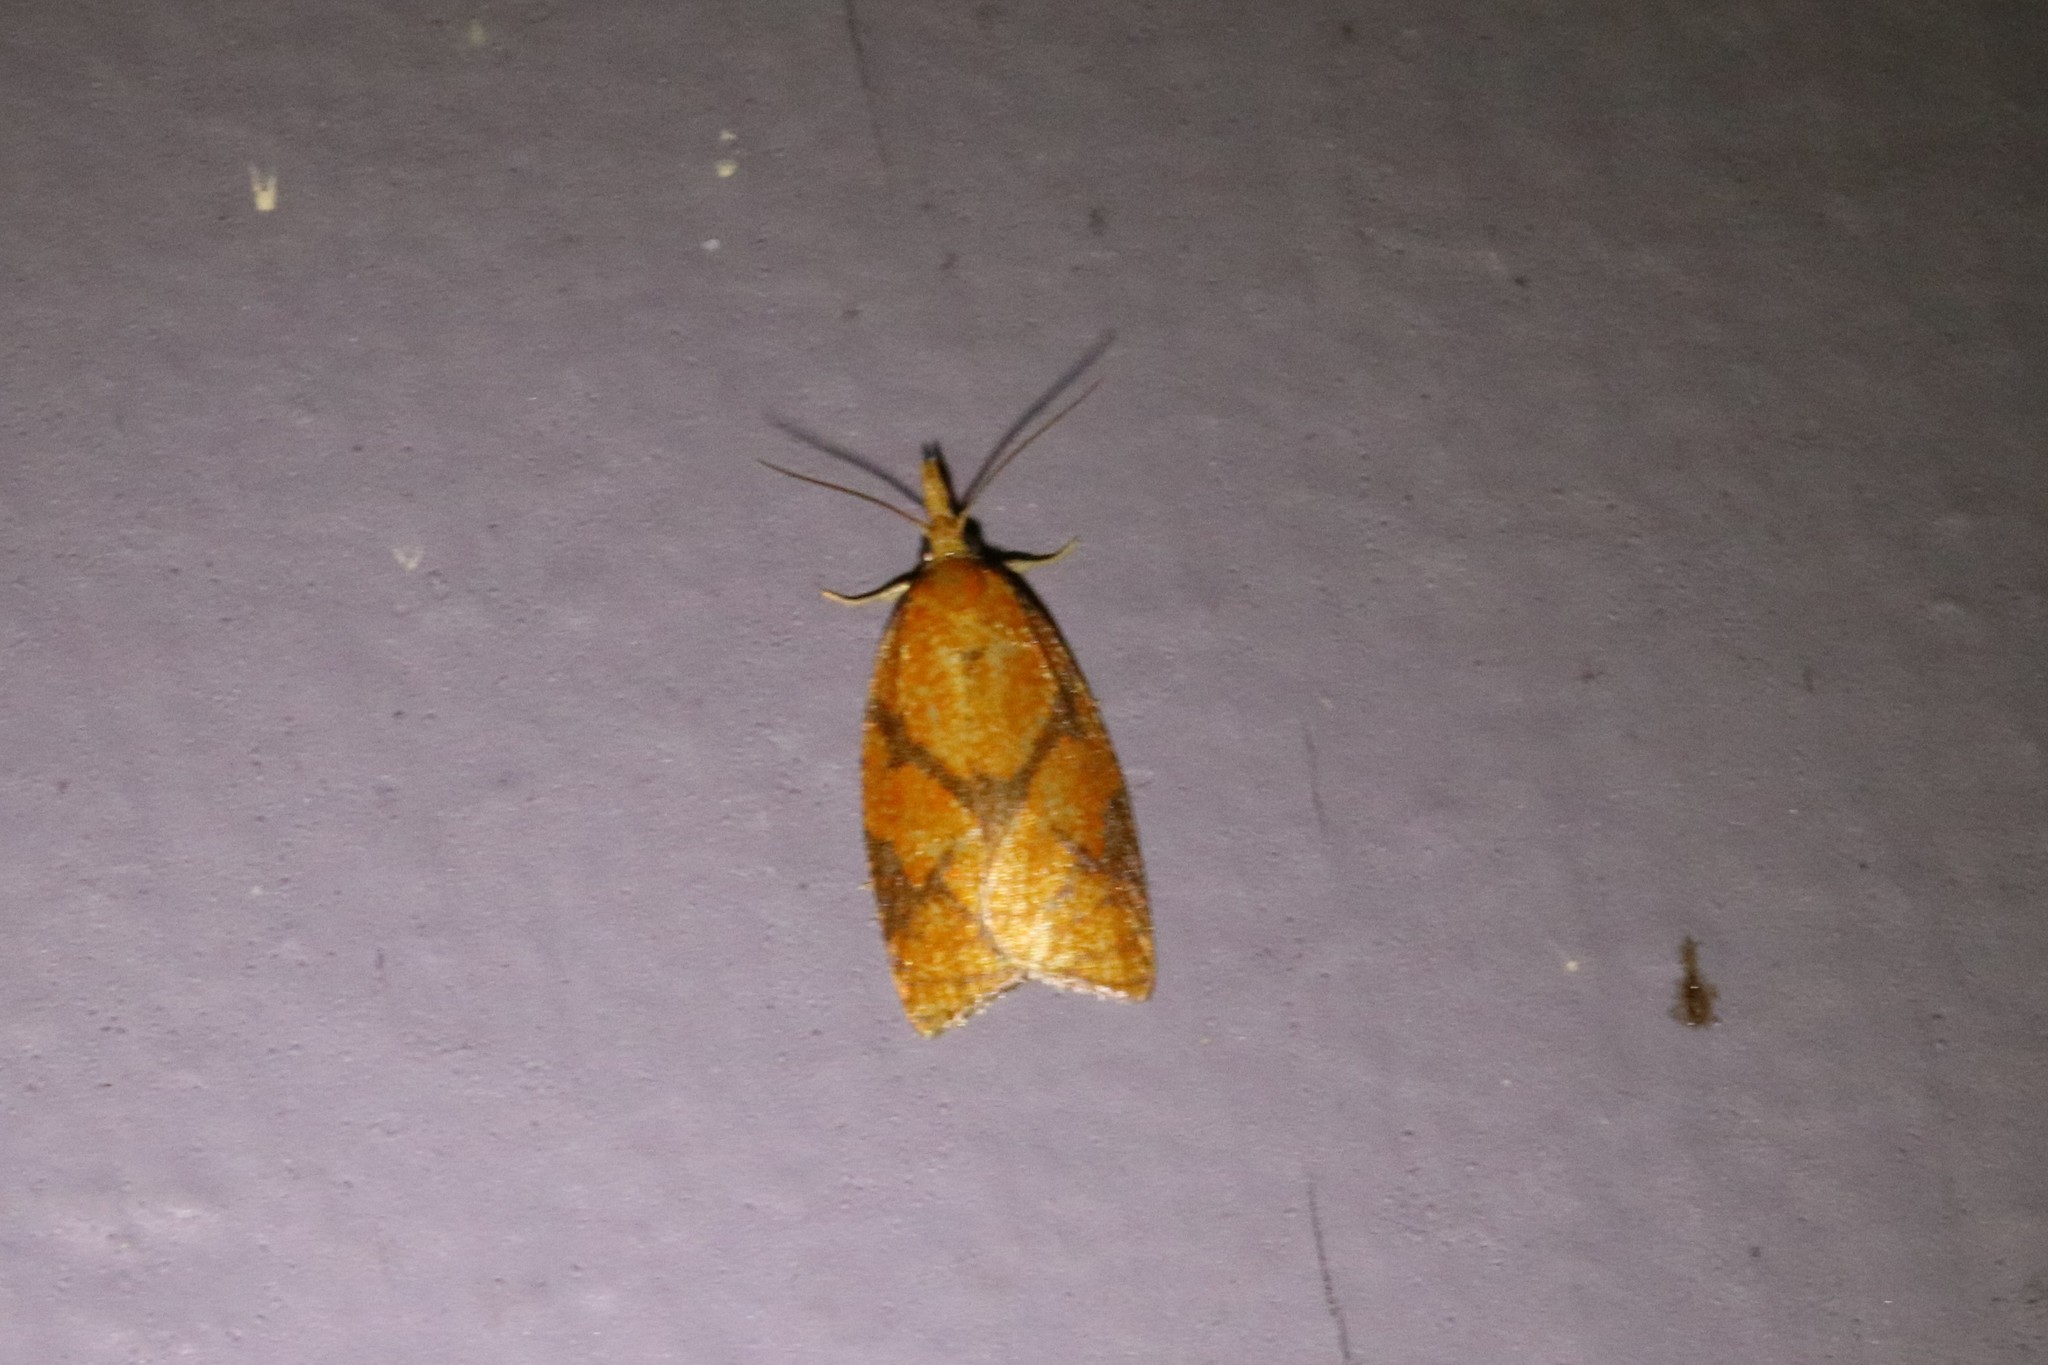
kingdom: Animalia
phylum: Arthropoda
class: Insecta
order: Lepidoptera
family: Tortricidae
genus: Cenopis
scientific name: Cenopis reticulatana
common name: Reticulated fruitworm moth
